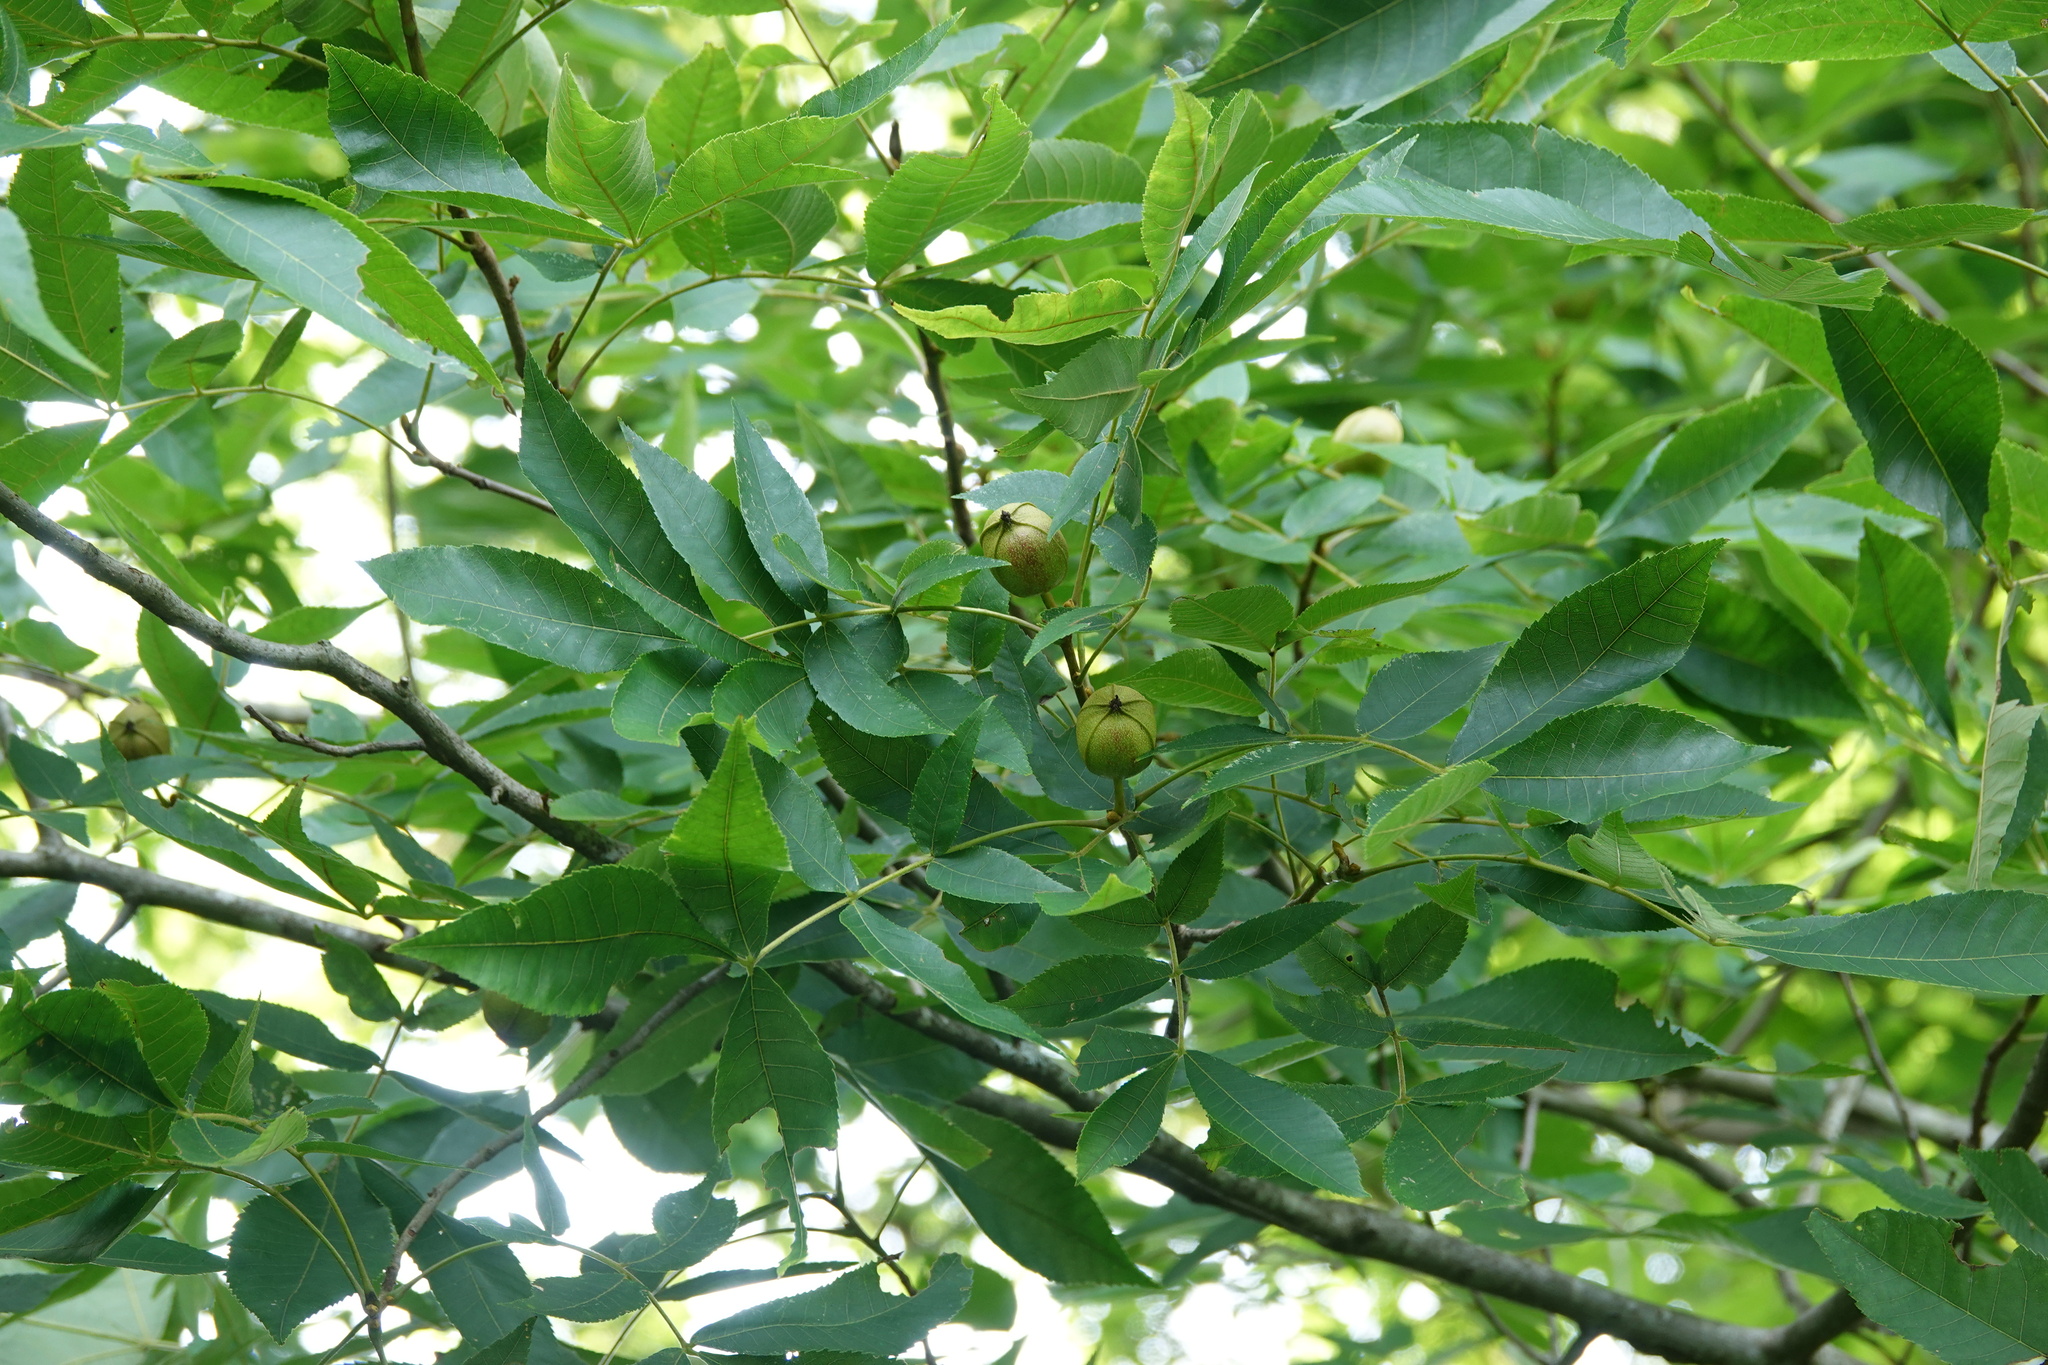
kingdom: Plantae
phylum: Tracheophyta
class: Magnoliopsida
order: Fagales
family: Juglandaceae
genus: Carya
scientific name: Carya cordiformis
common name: Bitternut hickory
